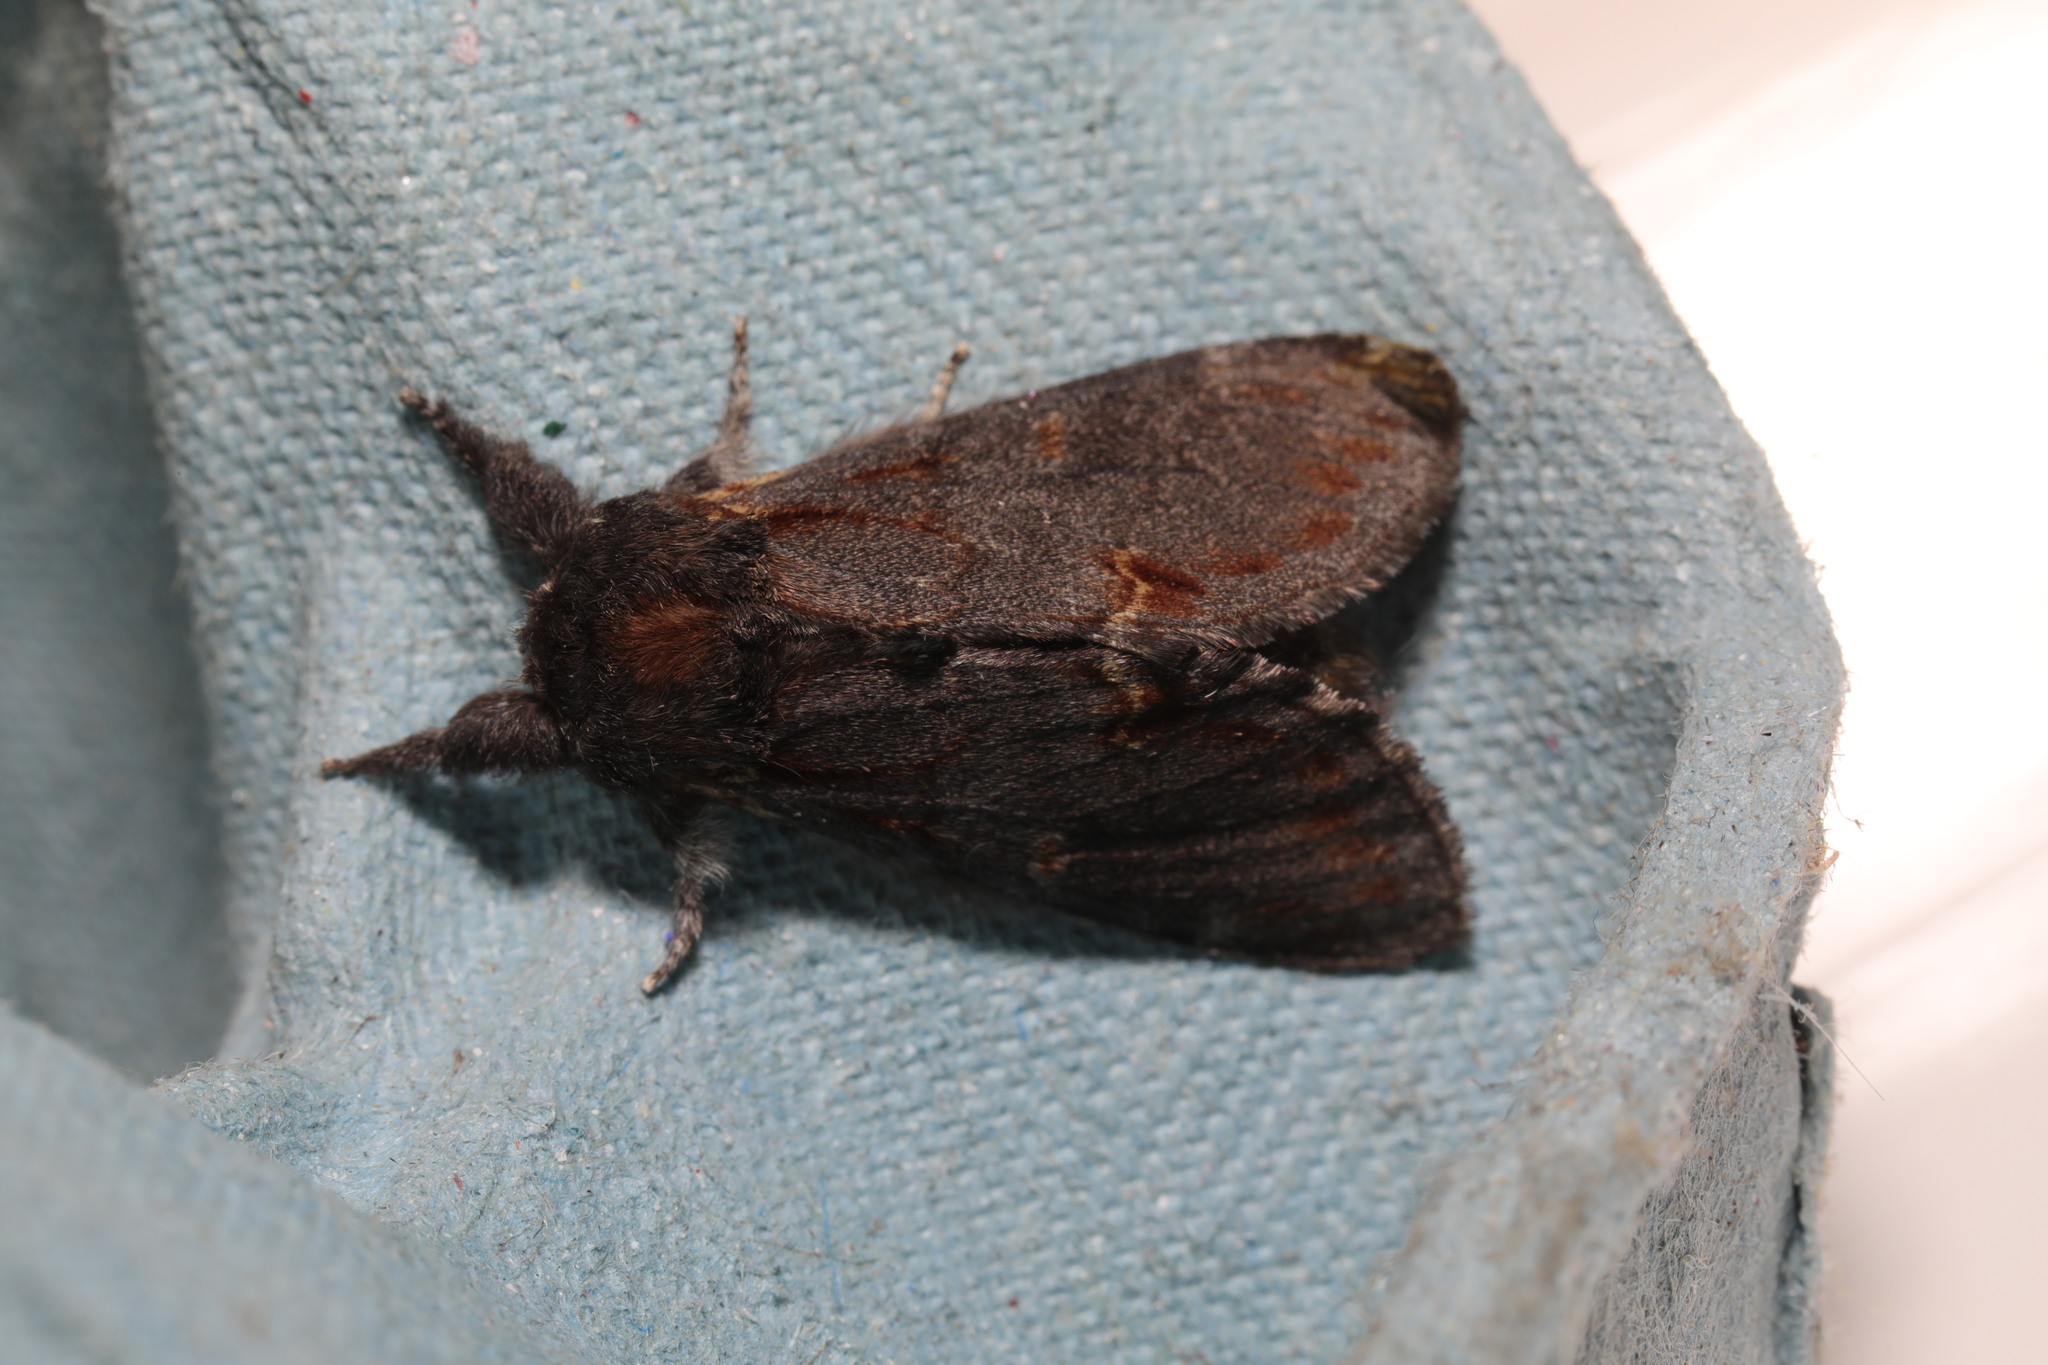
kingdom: Animalia
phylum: Arthropoda
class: Insecta
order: Lepidoptera
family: Notodontidae
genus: Notodonta
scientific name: Notodonta dromedarius
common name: Iron prominent
